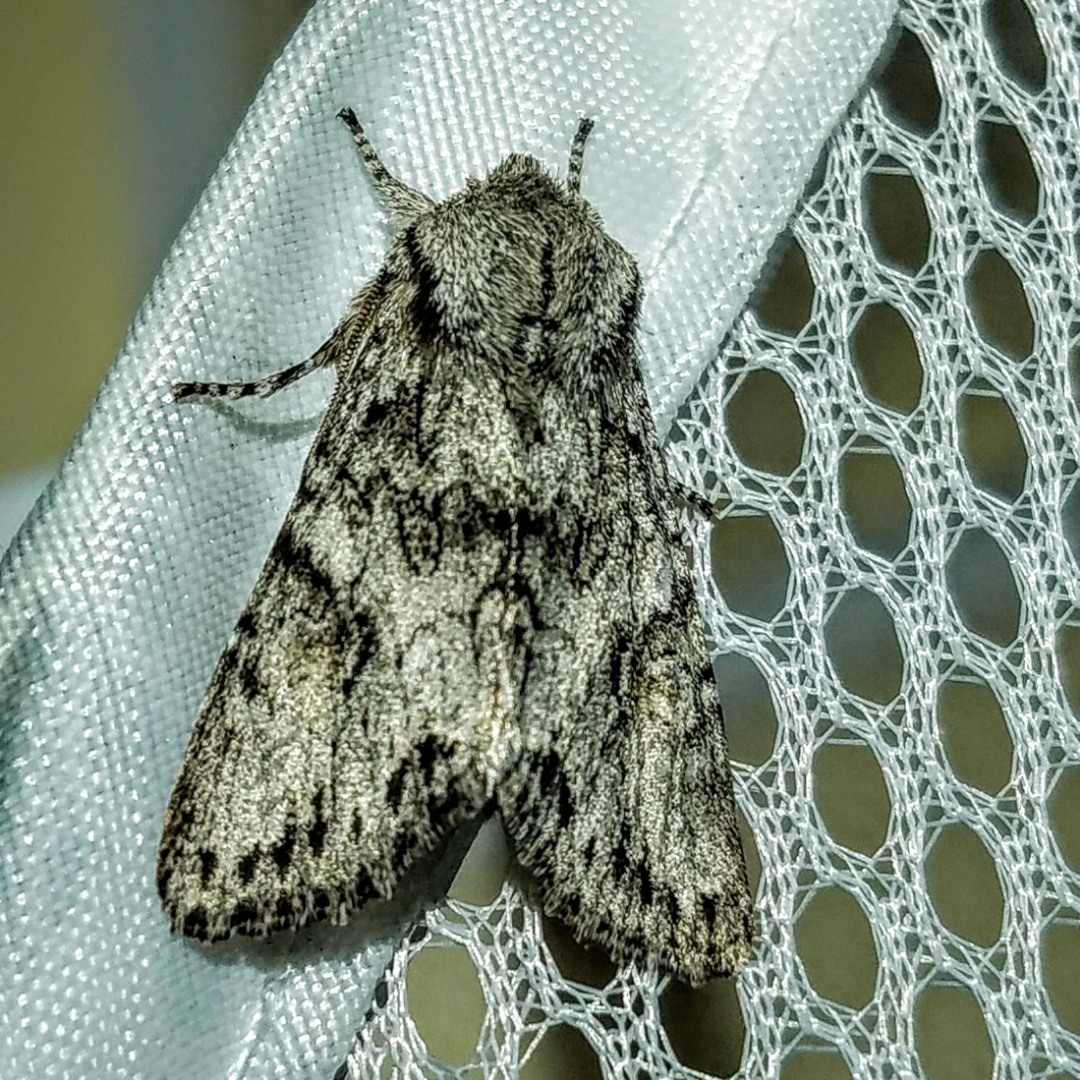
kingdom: Animalia
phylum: Arthropoda
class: Insecta
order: Lepidoptera
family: Noctuidae
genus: Egira
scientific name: Egira hiemalis
